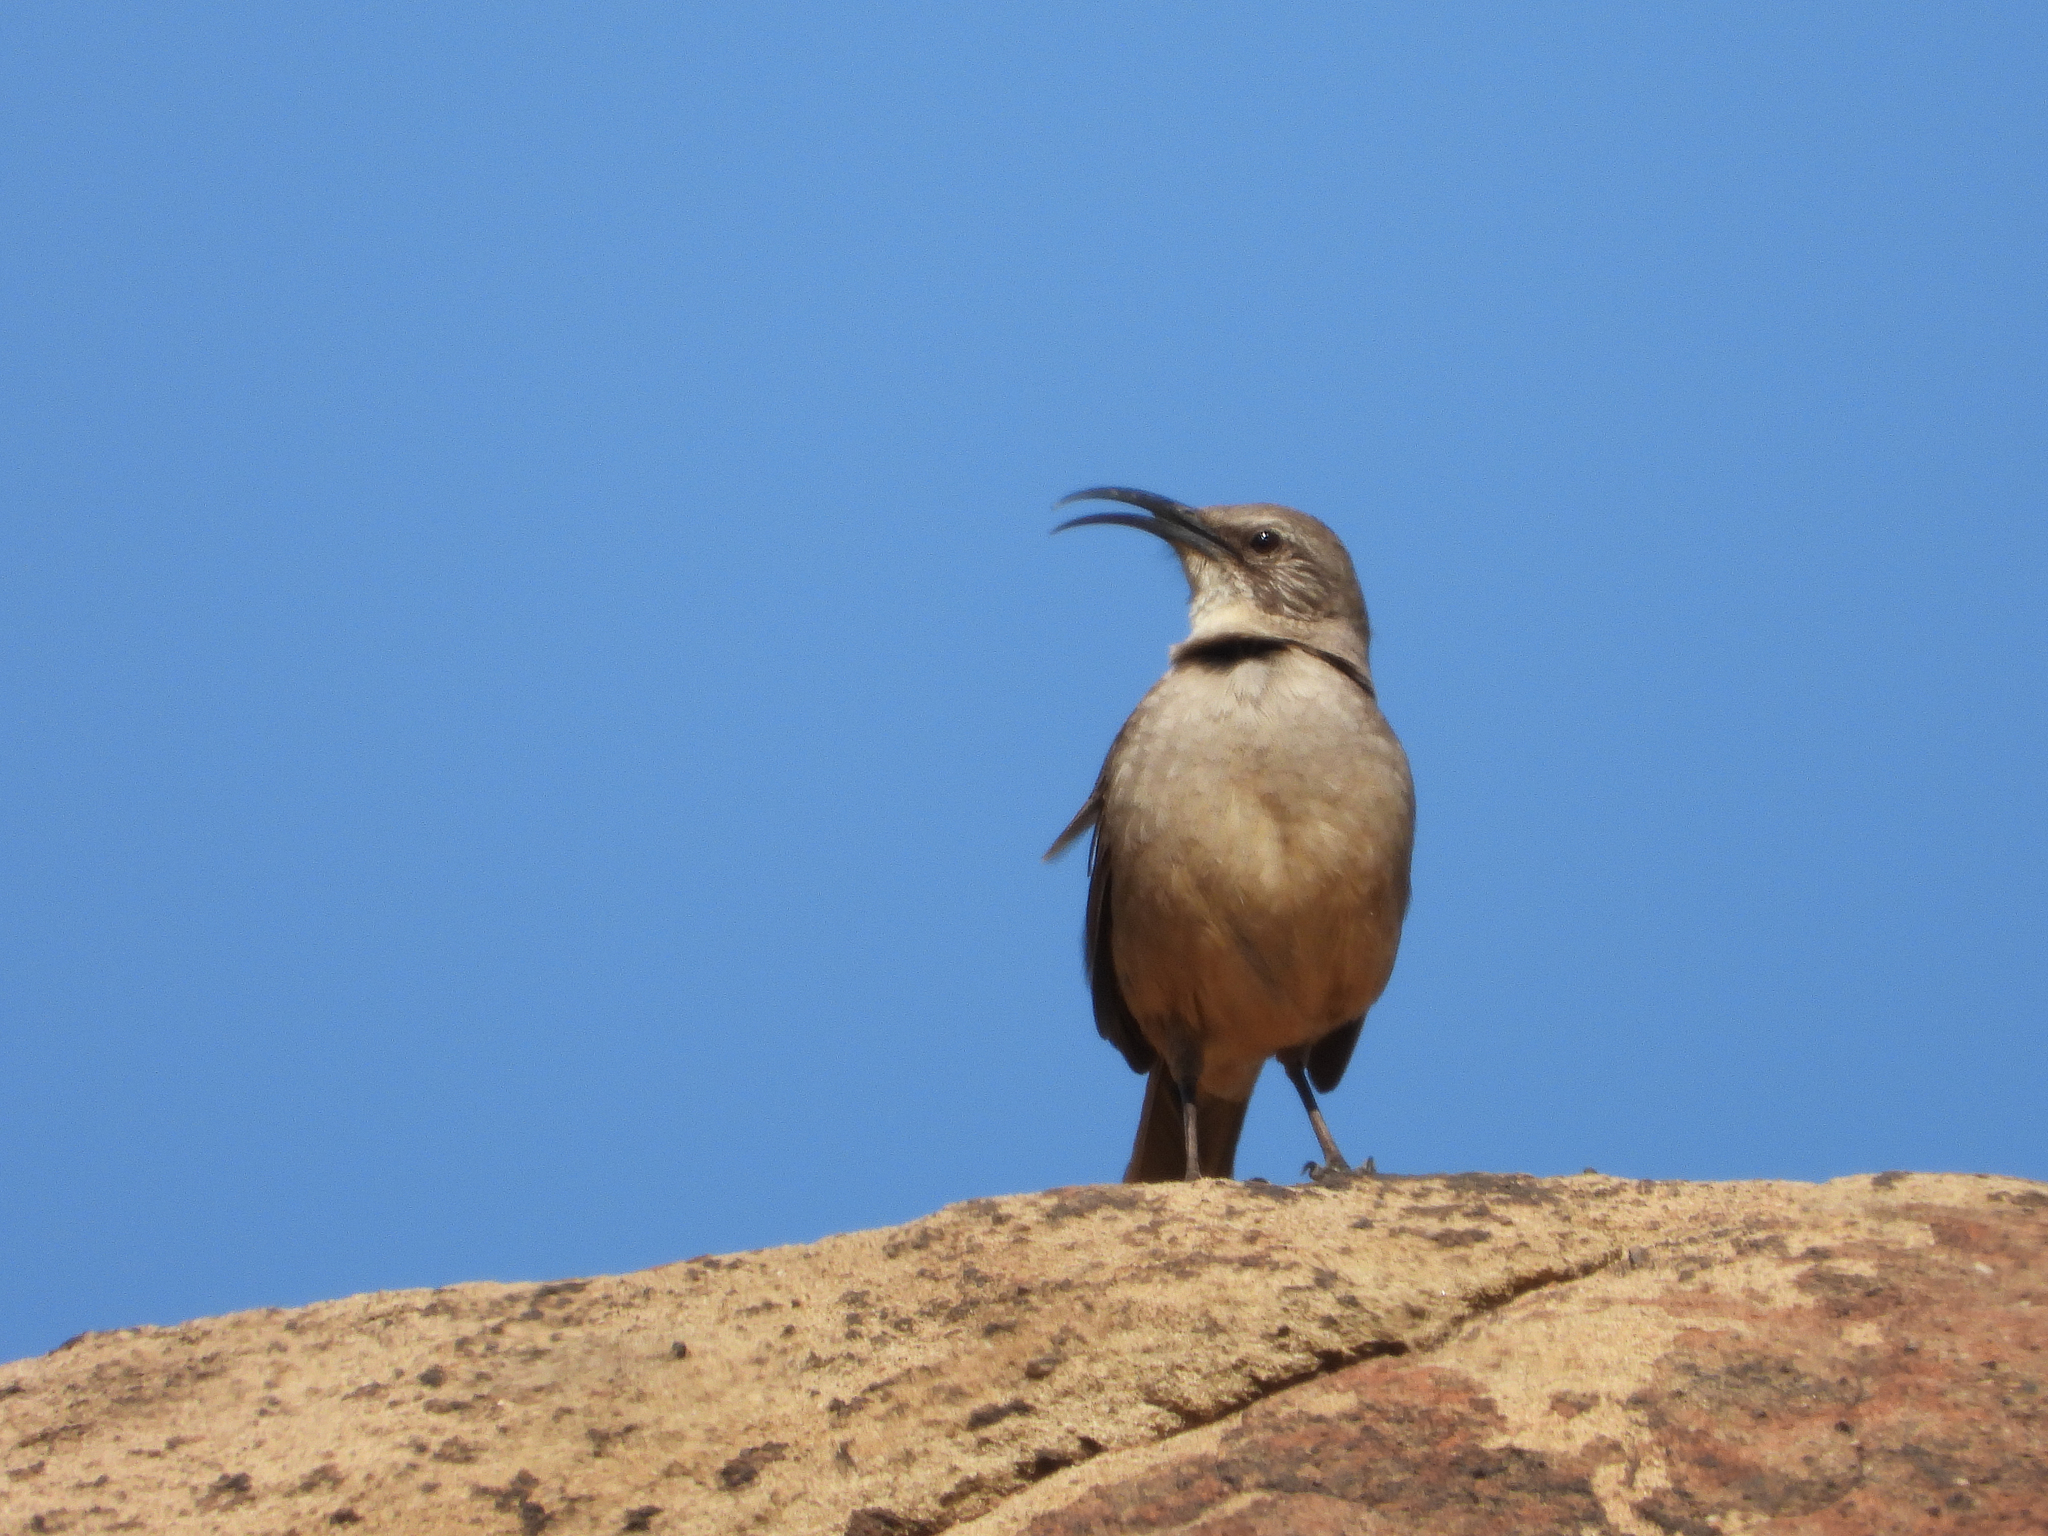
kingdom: Animalia
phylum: Chordata
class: Aves
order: Passeriformes
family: Mimidae
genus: Toxostoma
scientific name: Toxostoma redivivum
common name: California thrasher
